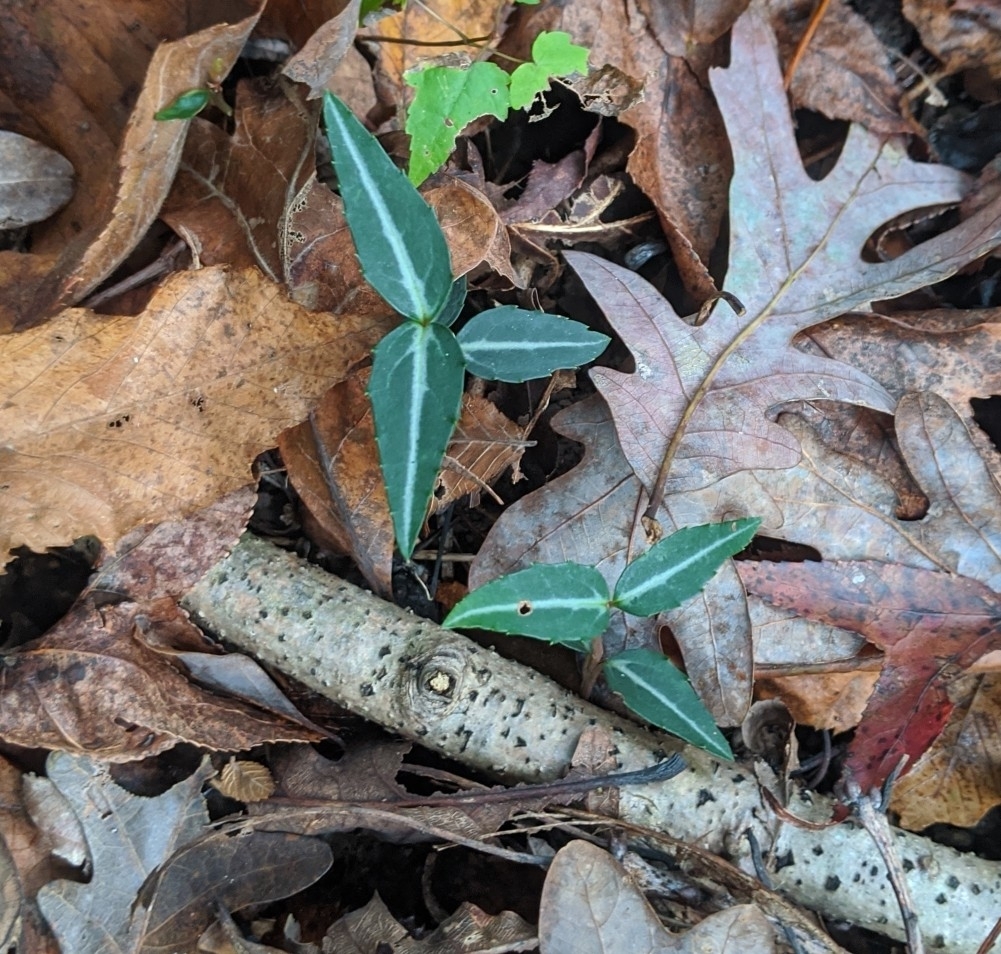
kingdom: Plantae
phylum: Tracheophyta
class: Magnoliopsida
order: Ericales
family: Ericaceae
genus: Chimaphila
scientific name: Chimaphila maculata
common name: Spotted pipsissewa
